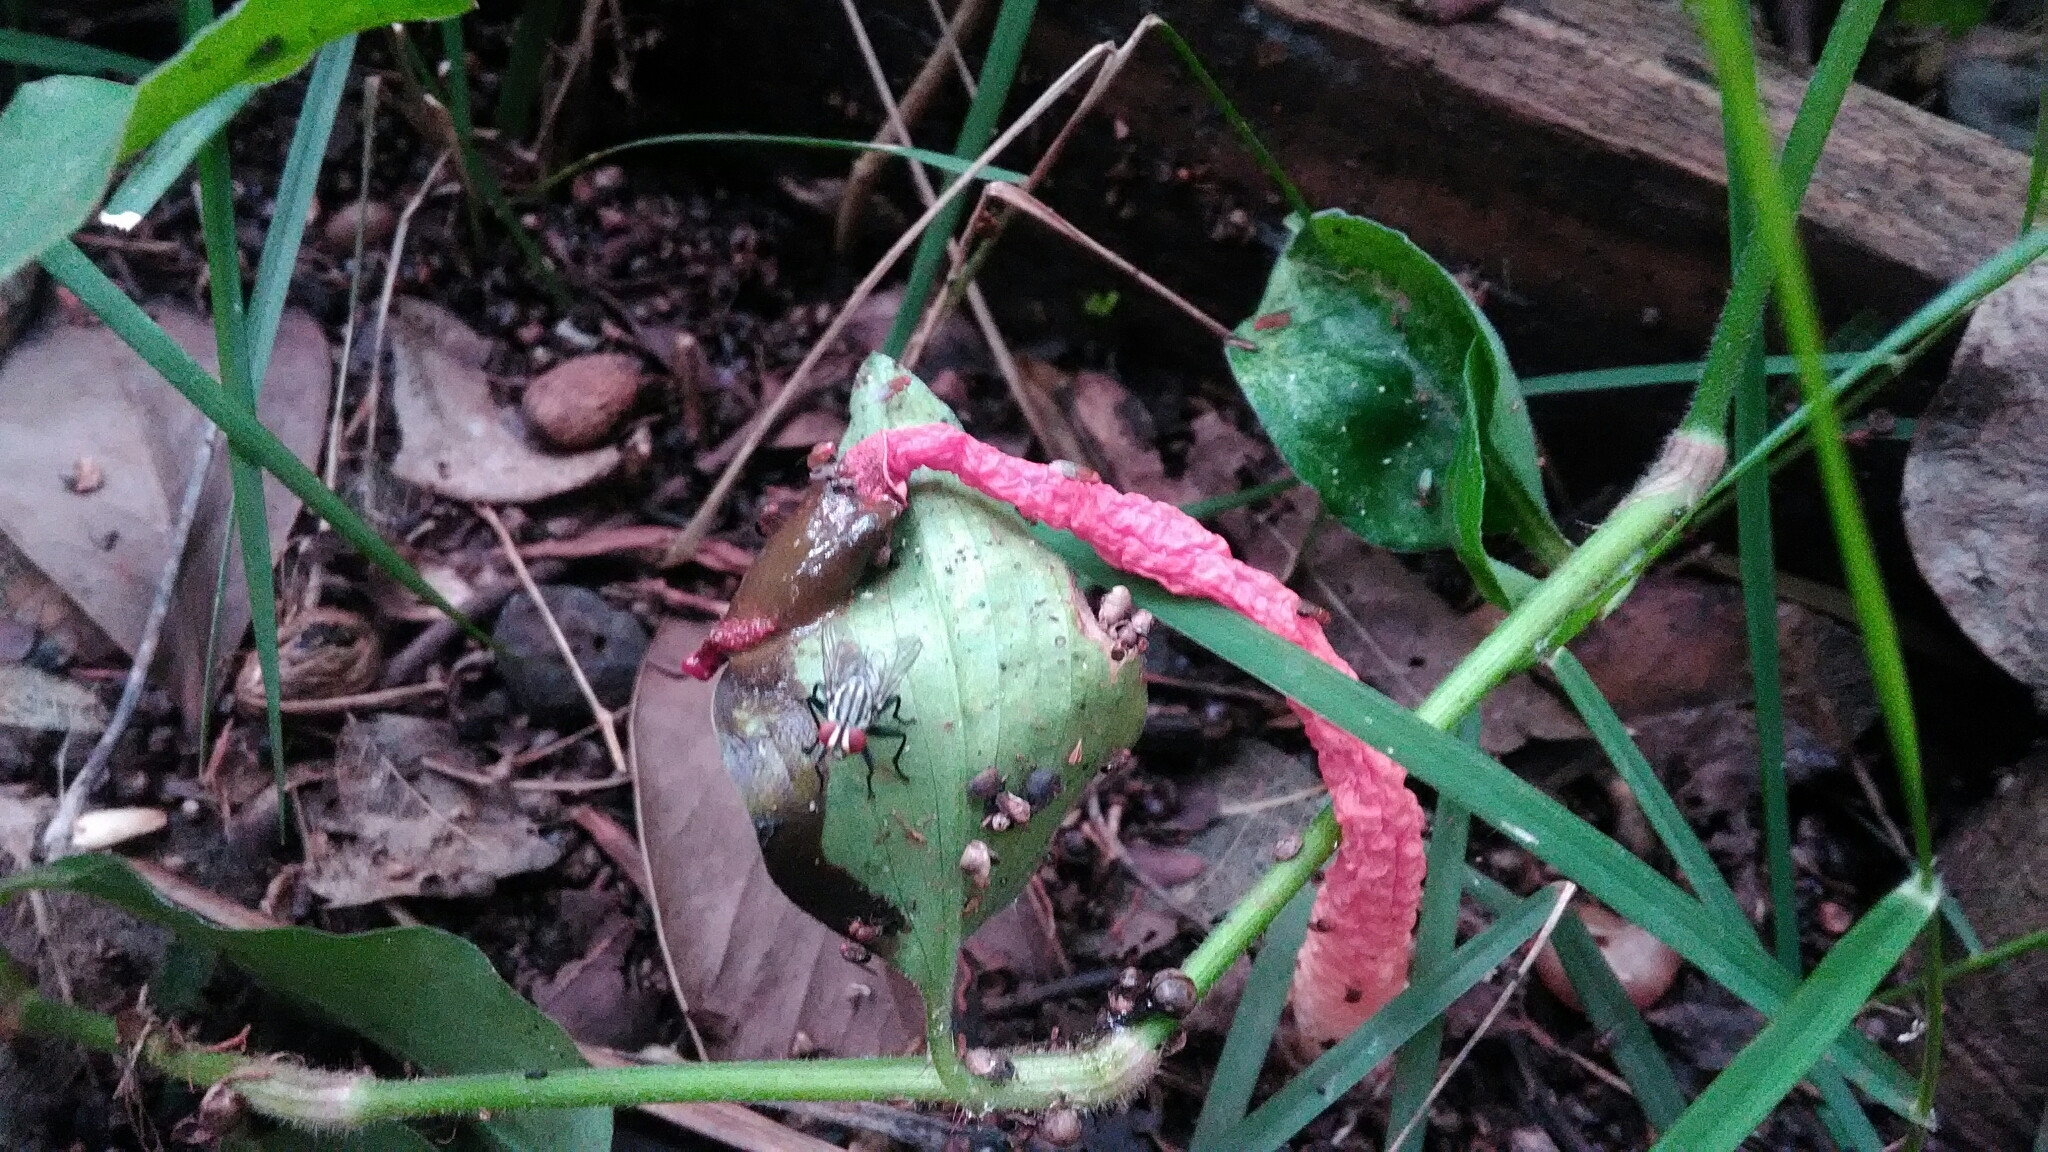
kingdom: Fungi
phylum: Basidiomycota
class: Agaricomycetes
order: Phallales
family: Phallaceae
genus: Phallus
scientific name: Phallus rugulosus
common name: Wrinkly stinkhorn
